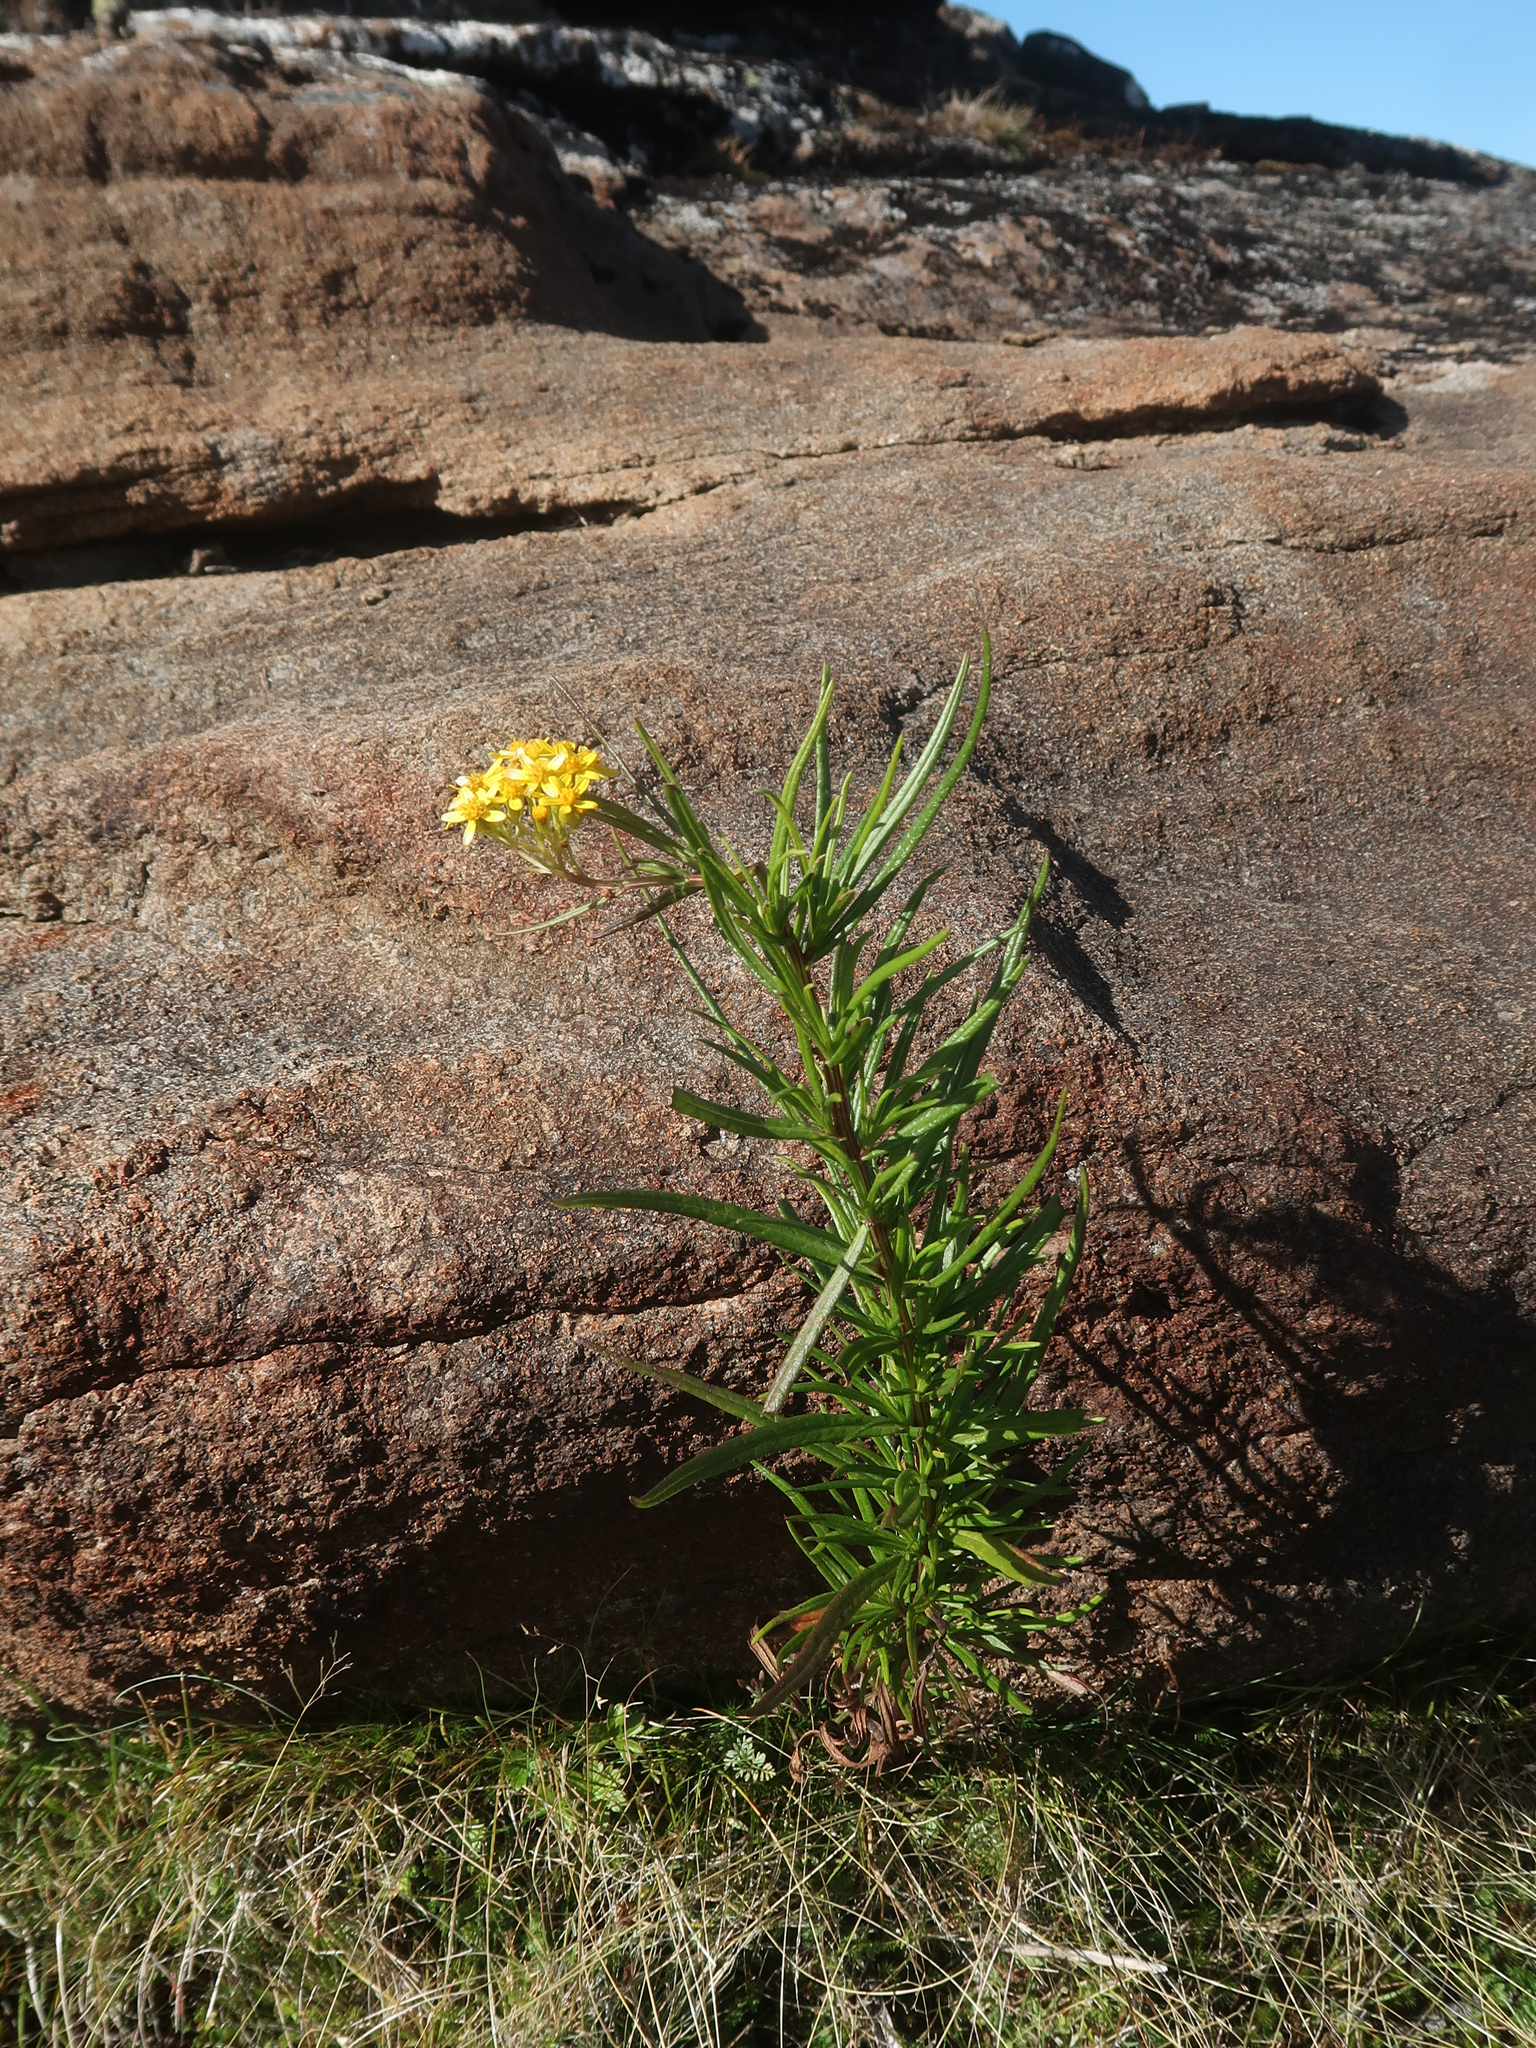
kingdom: Plantae
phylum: Tracheophyta
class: Magnoliopsida
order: Asterales
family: Asteraceae
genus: Senecio
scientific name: Senecio linearifolius
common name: Fireweed groundsel
